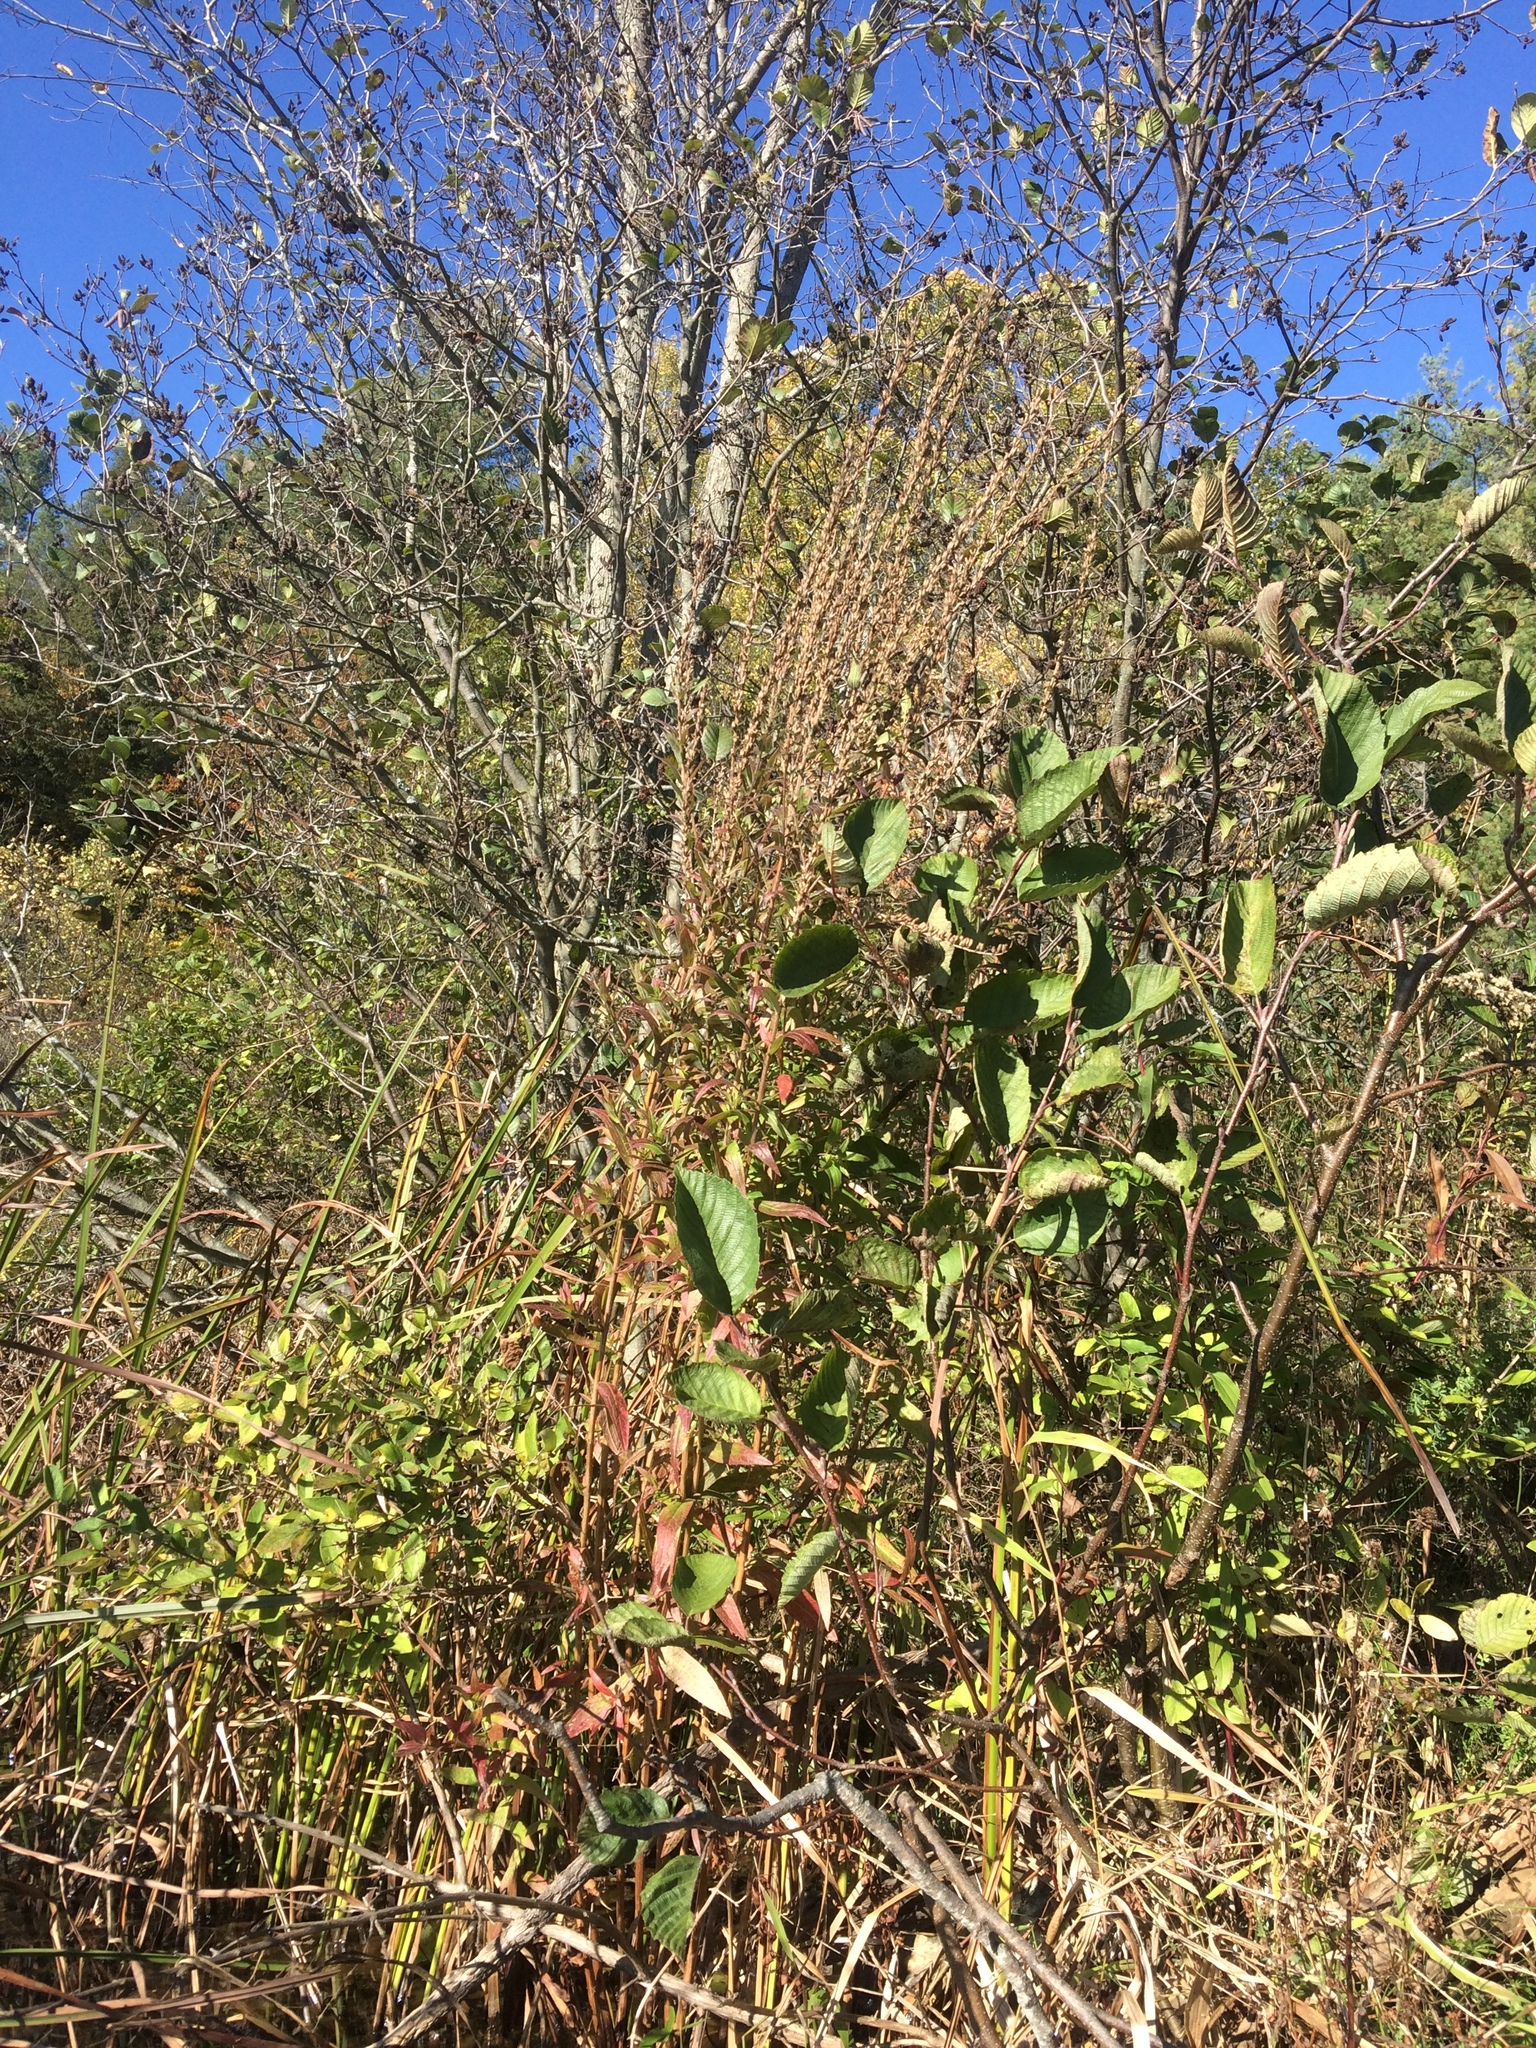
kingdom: Plantae
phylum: Tracheophyta
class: Magnoliopsida
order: Myrtales
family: Lythraceae
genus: Lythrum
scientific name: Lythrum salicaria
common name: Purple loosestrife
